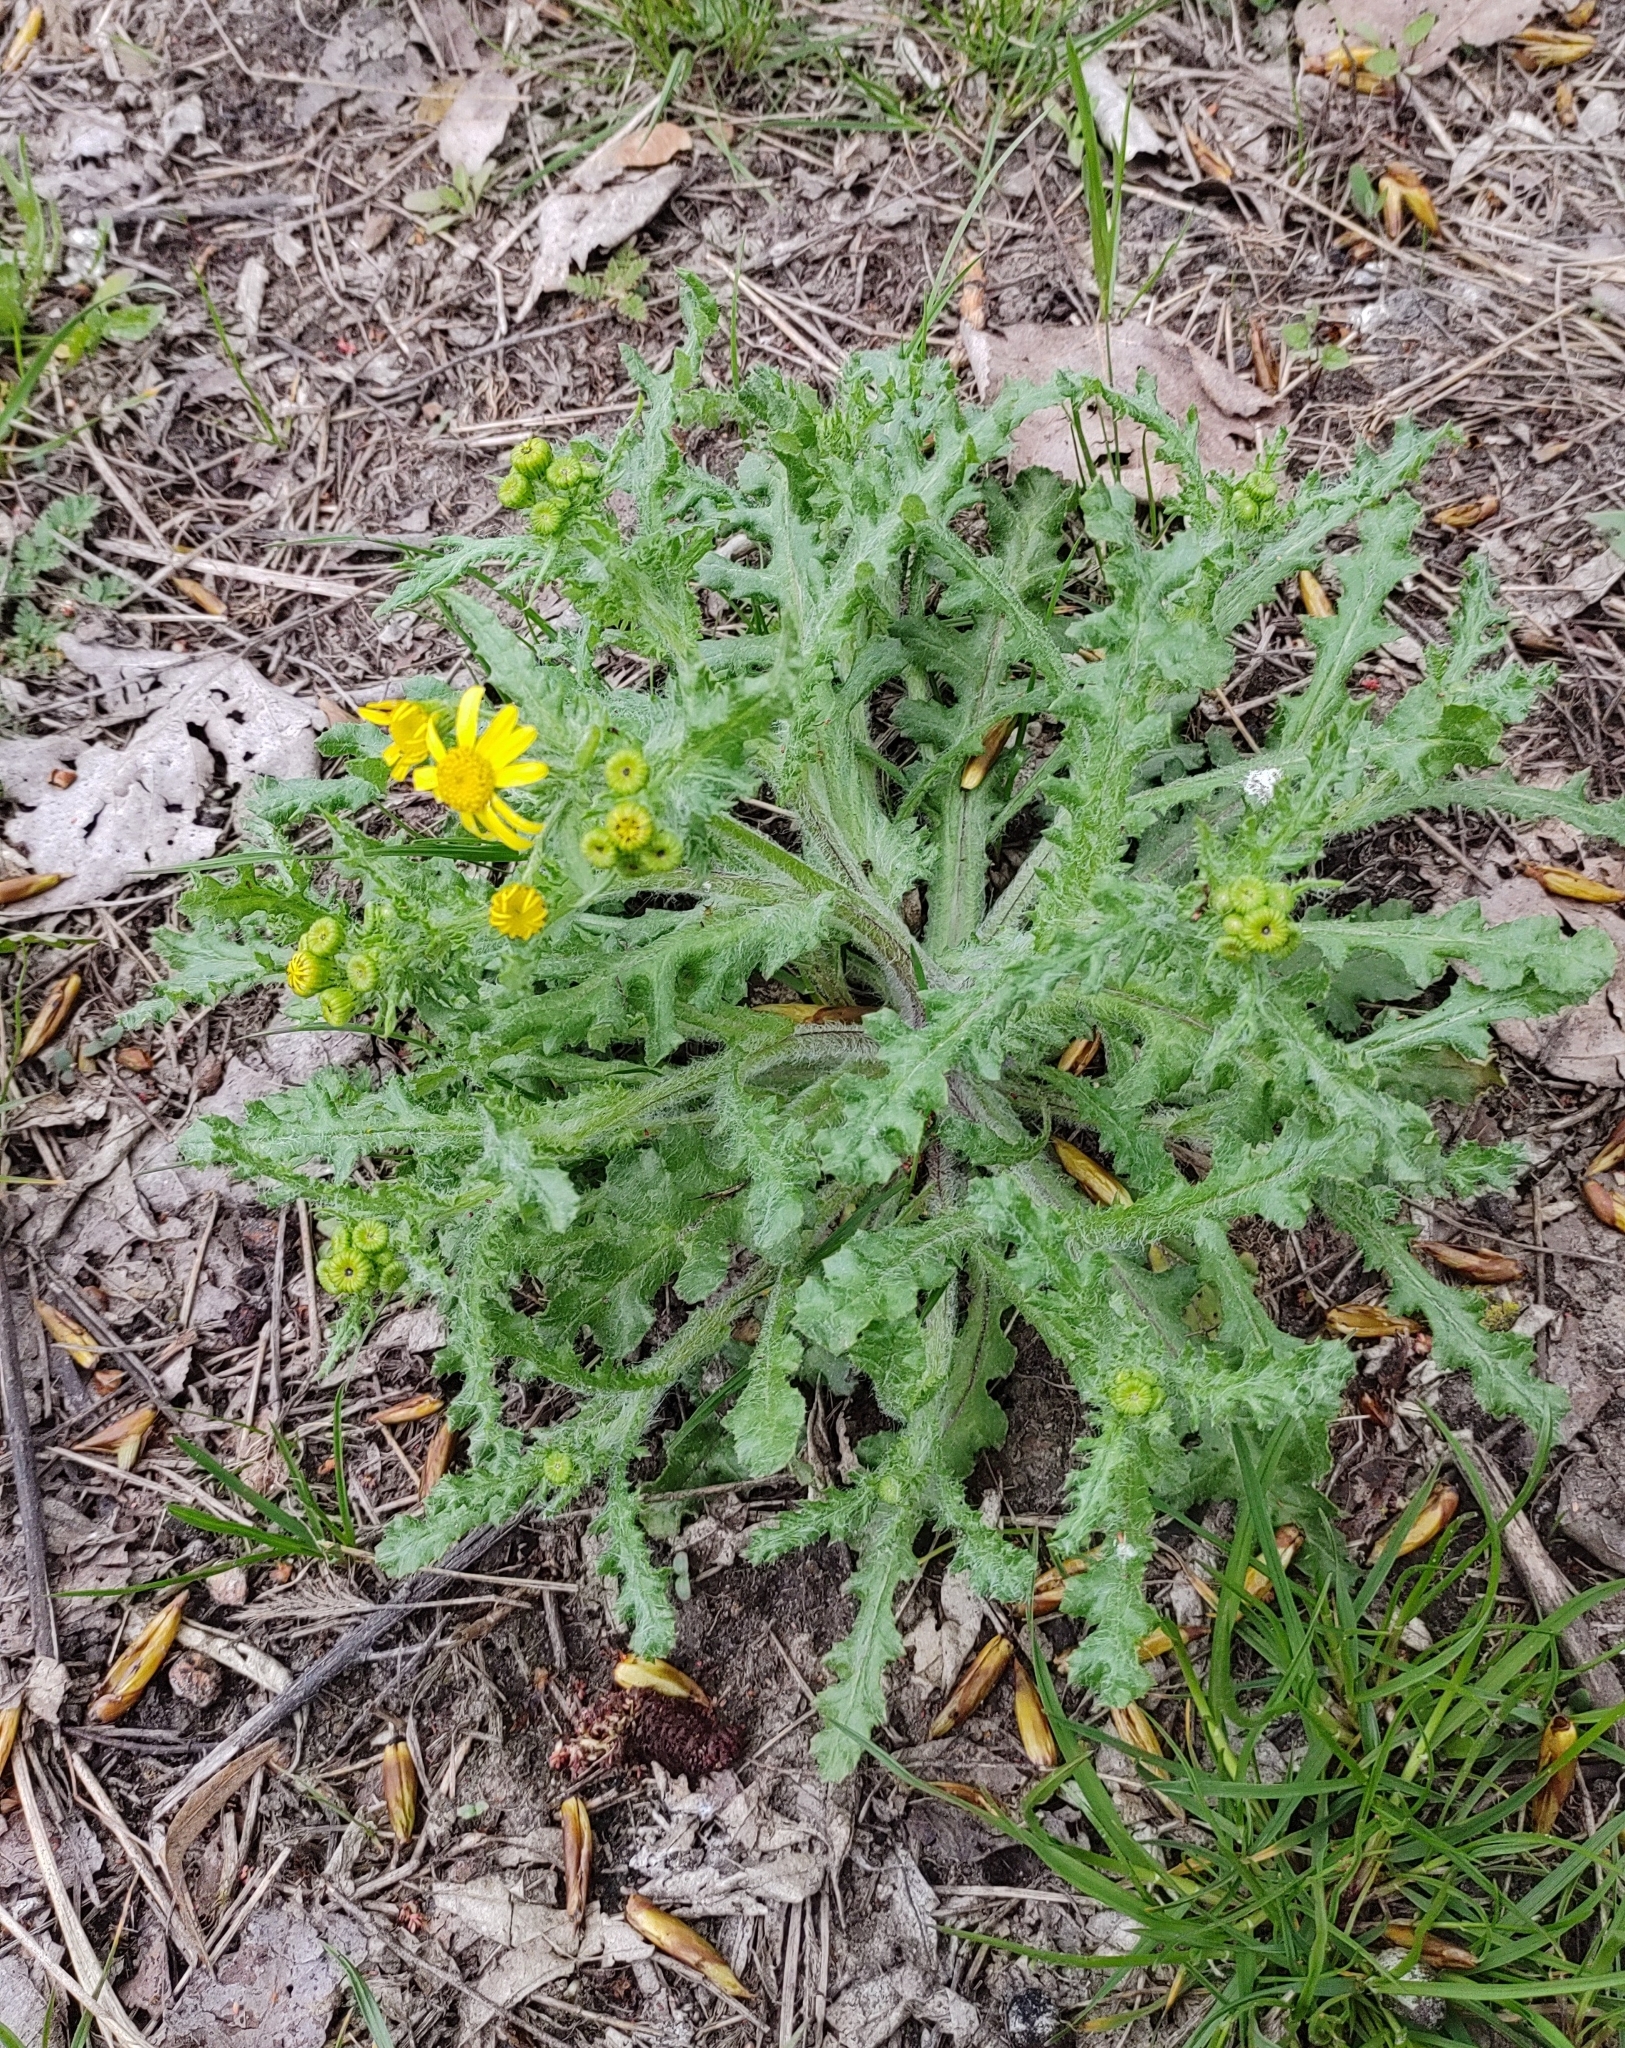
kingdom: Plantae
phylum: Tracheophyta
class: Magnoliopsida
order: Asterales
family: Asteraceae
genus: Senecio
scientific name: Senecio vernalis
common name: Eastern groundsel
